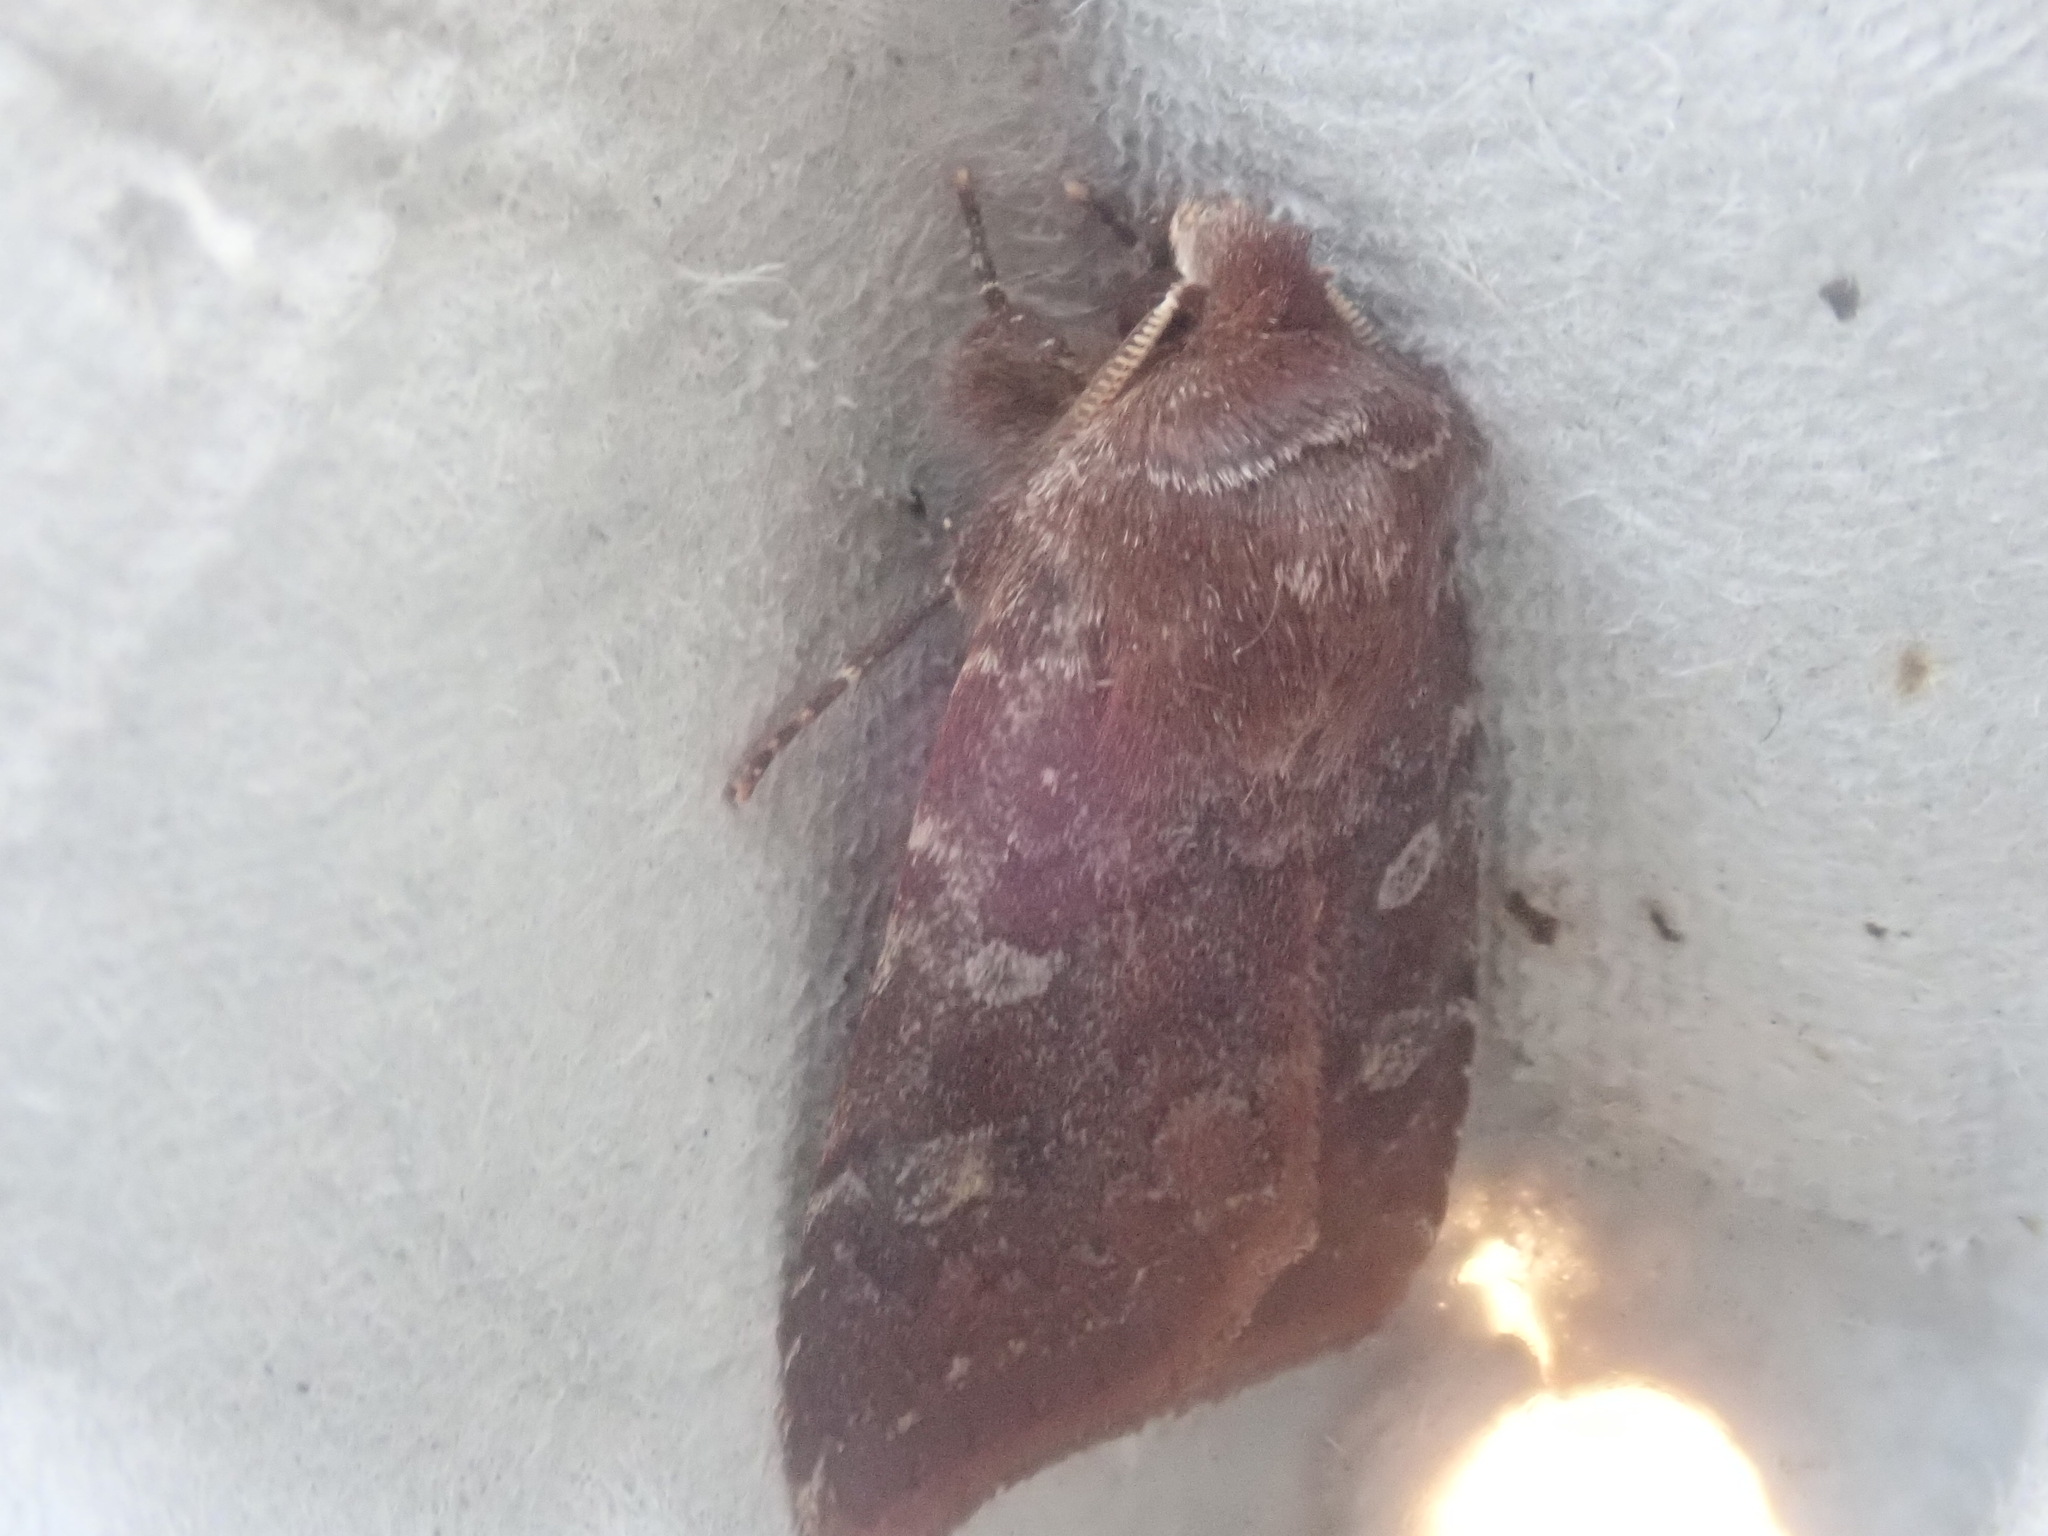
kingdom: Animalia
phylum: Arthropoda
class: Insecta
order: Lepidoptera
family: Noctuidae
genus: Cerastis
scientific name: Cerastis tenebrifera
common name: Reddish speckled dart
